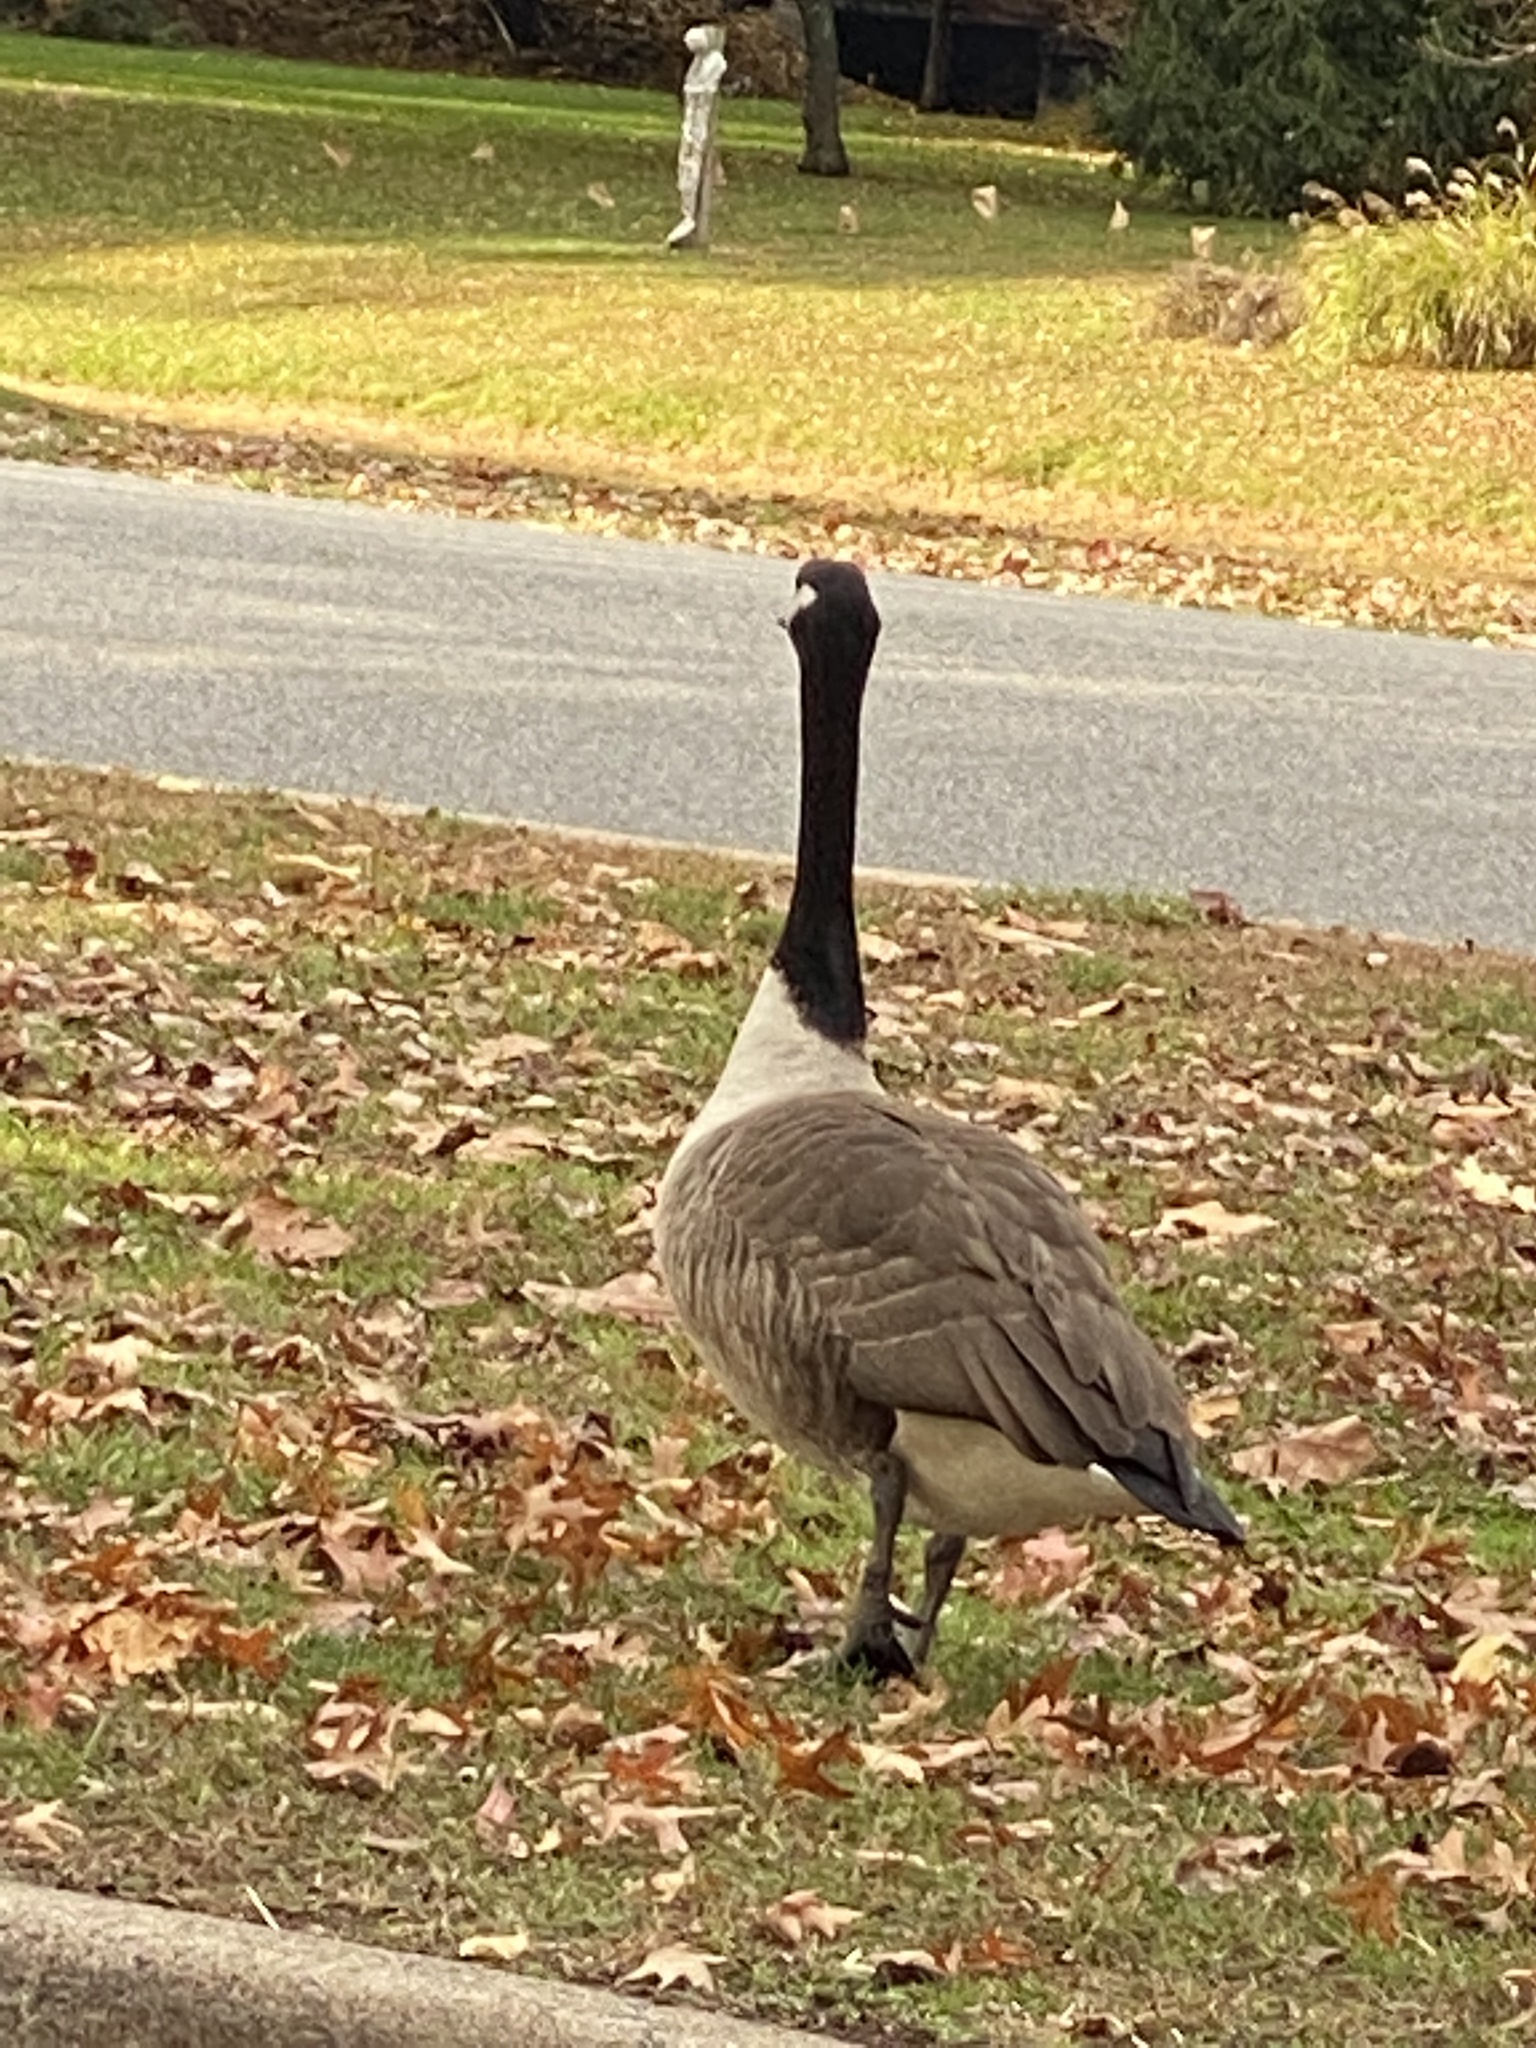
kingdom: Animalia
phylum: Chordata
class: Aves
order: Anseriformes
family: Anatidae
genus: Branta
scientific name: Branta canadensis
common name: Canada goose
